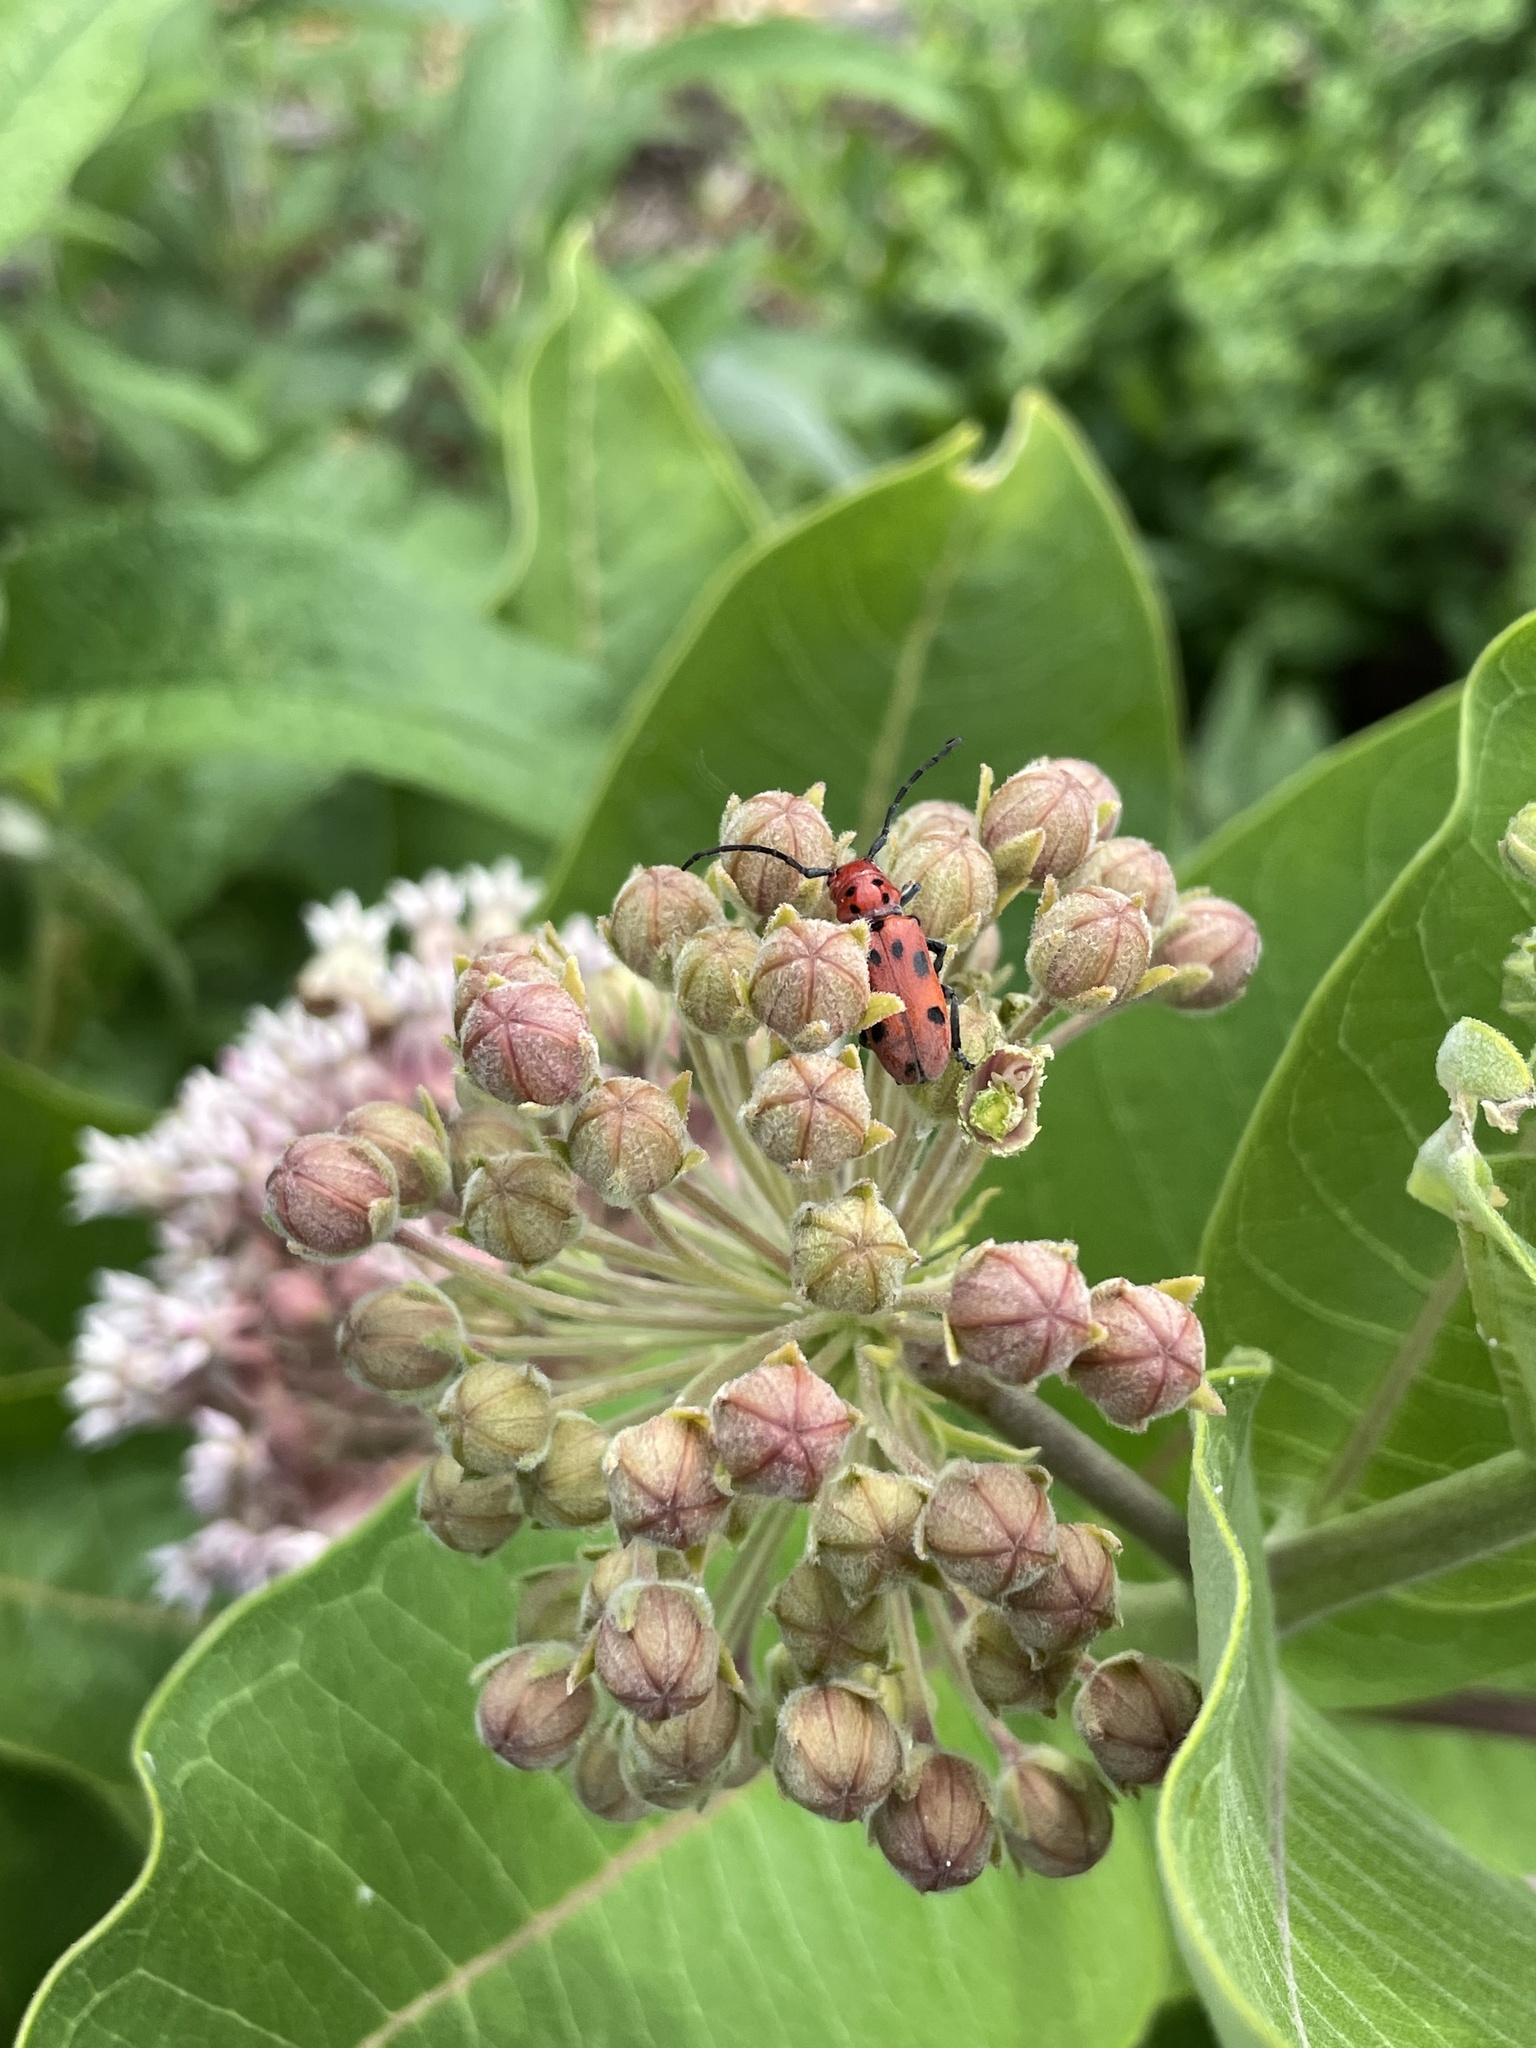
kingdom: Animalia
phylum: Arthropoda
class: Insecta
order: Coleoptera
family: Cerambycidae
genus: Tetraopes
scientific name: Tetraopes tetrophthalmus
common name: Red milkweed beetle
